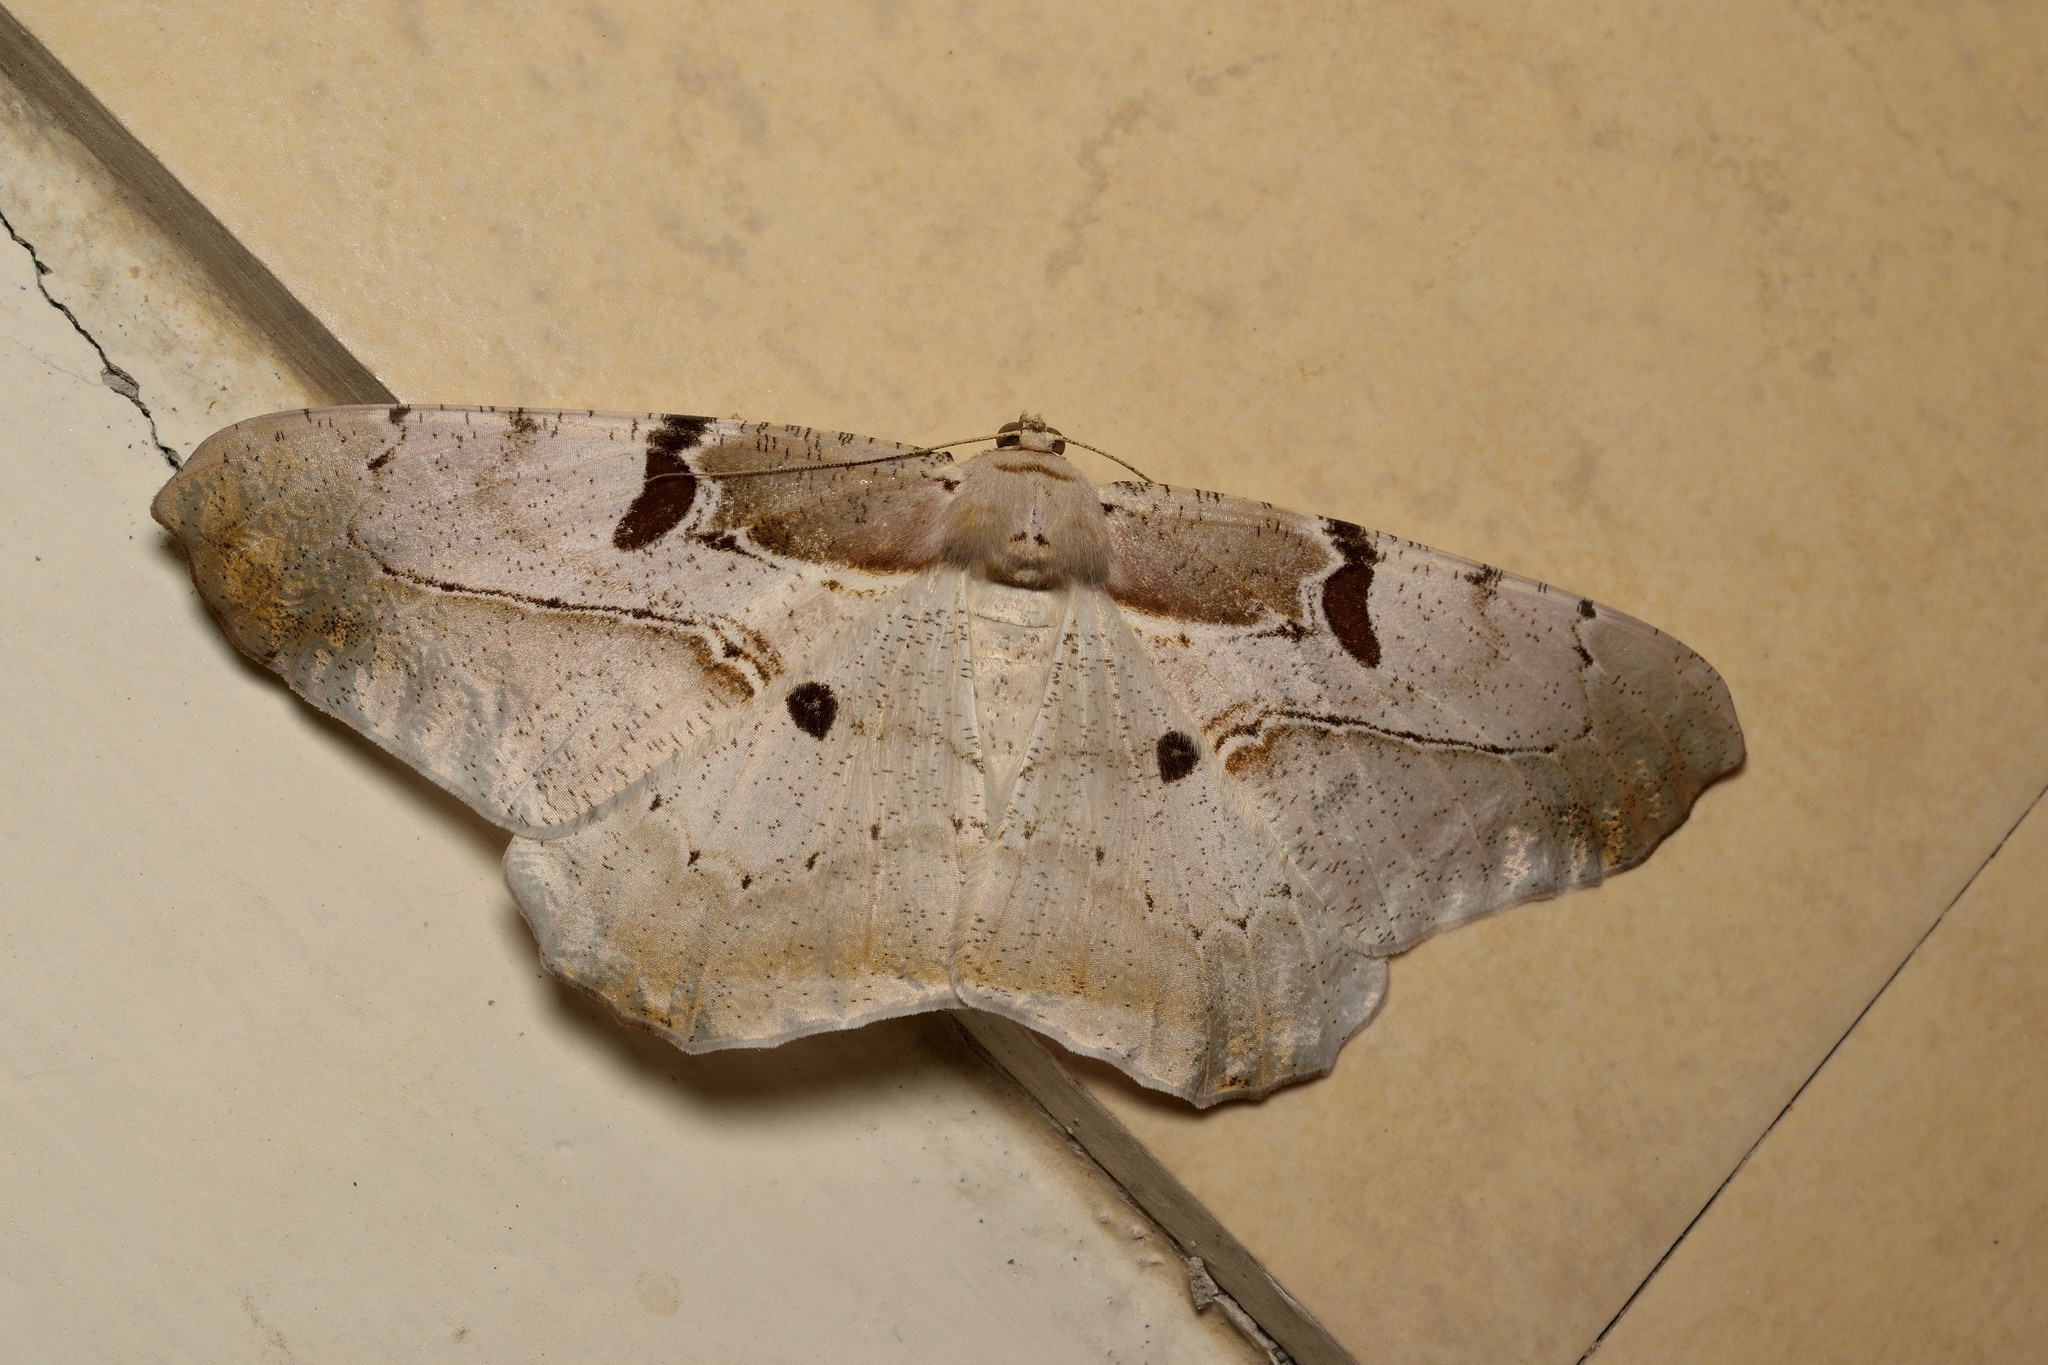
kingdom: Animalia
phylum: Arthropoda
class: Insecta
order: Lepidoptera
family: Geometridae
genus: Chorodna
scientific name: Chorodna erebusaria
